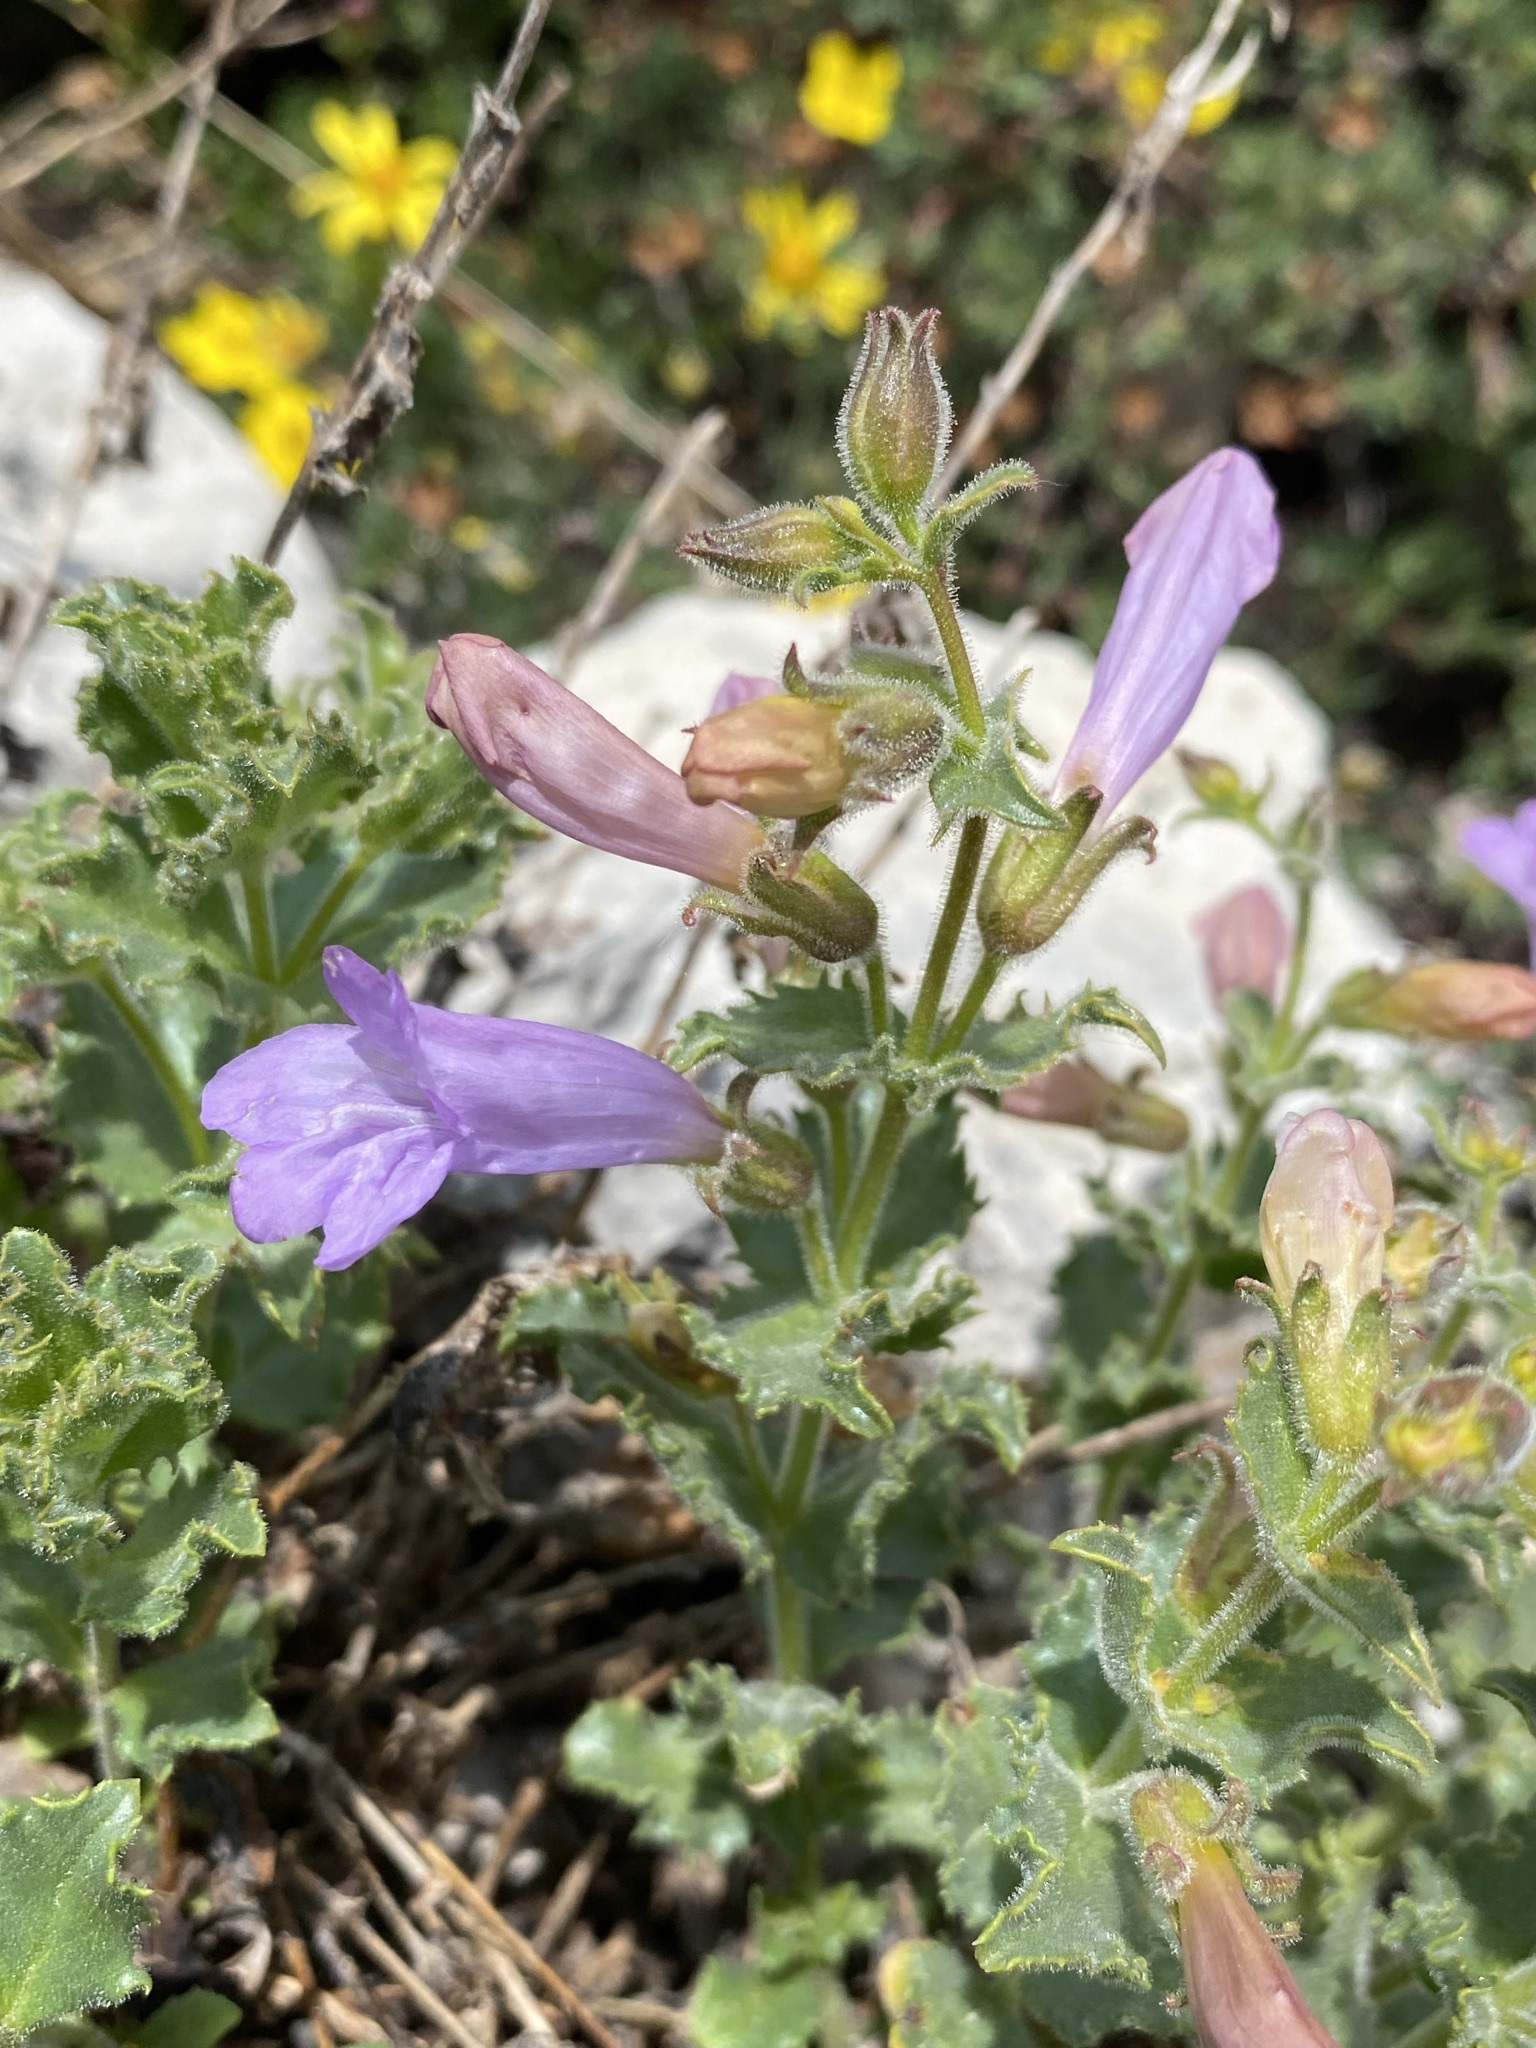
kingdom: Plantae
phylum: Tracheophyta
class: Magnoliopsida
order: Lamiales
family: Plantaginaceae
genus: Penstemon
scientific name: Penstemon montanus
